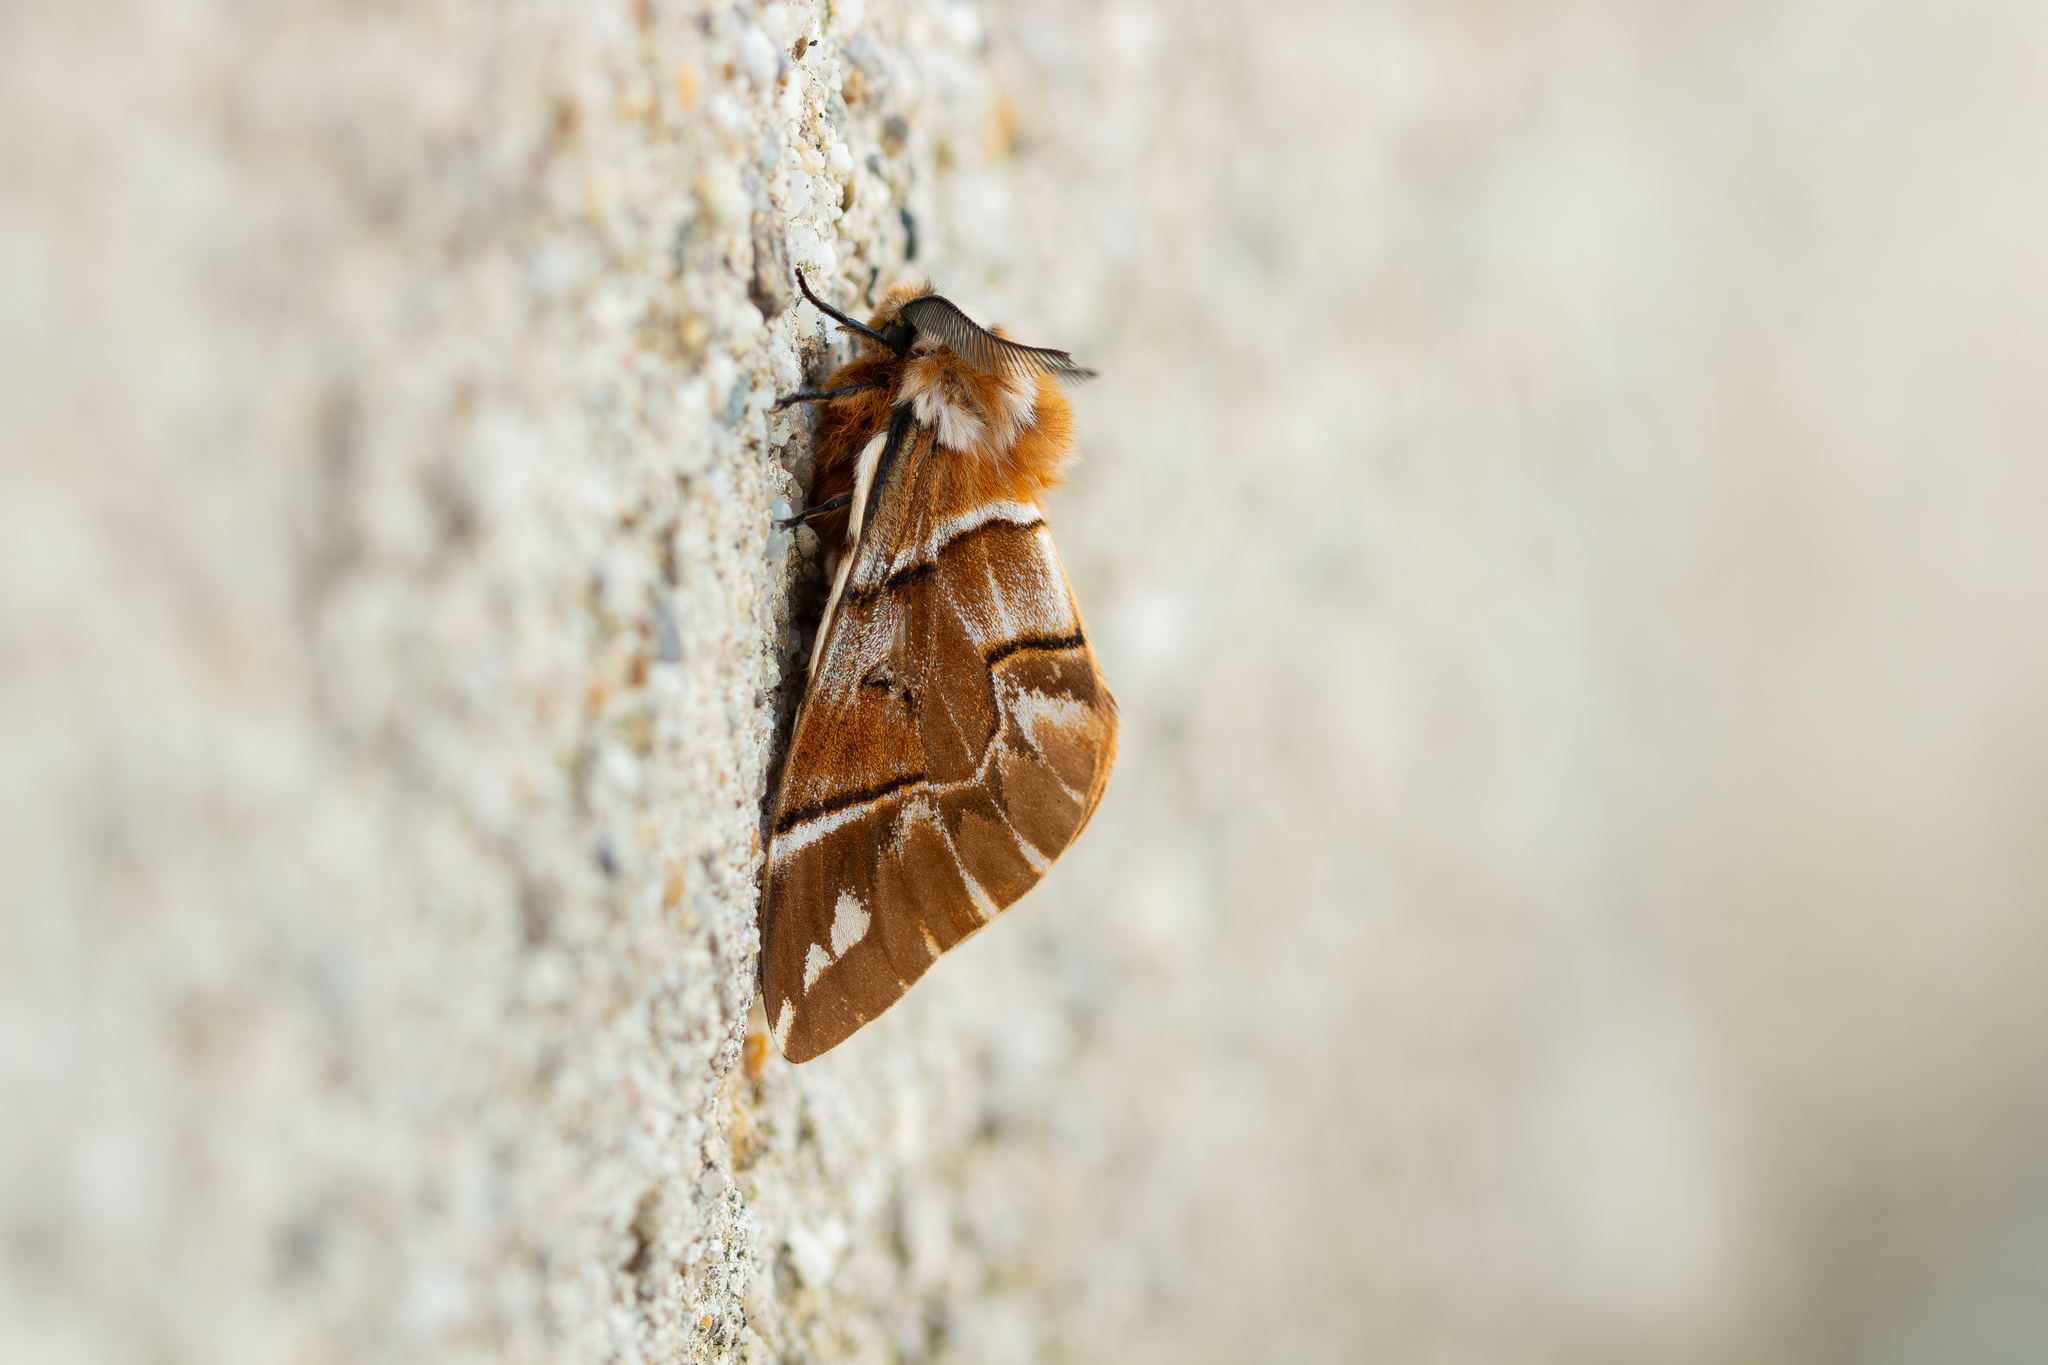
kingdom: Animalia
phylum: Arthropoda
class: Insecta
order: Lepidoptera
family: Endromidae
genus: Endromis
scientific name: Endromis versicolora
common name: Kentish glory
